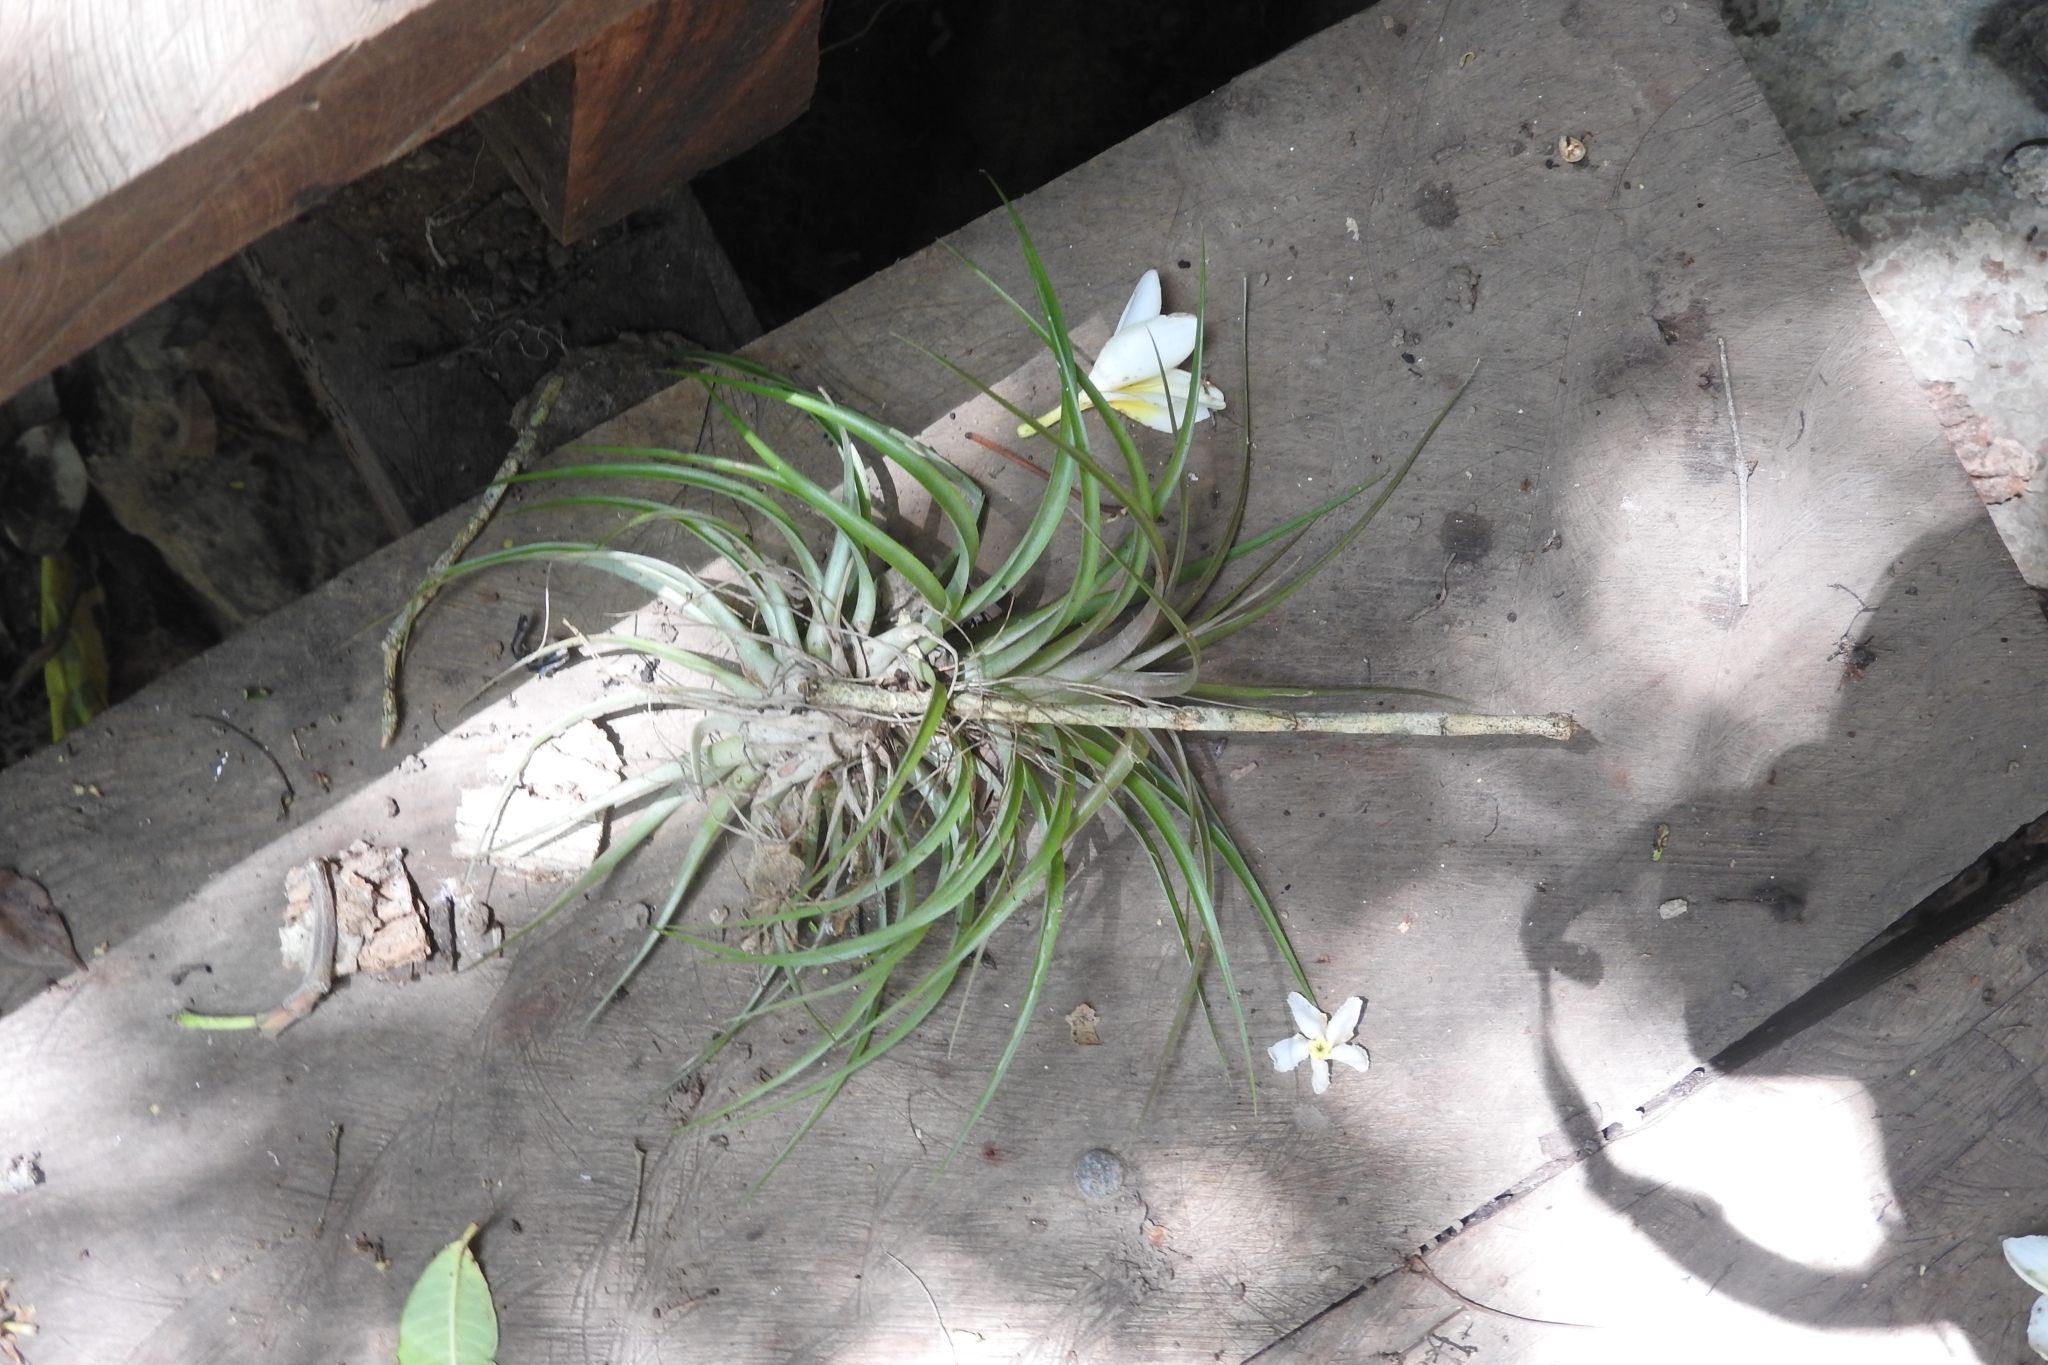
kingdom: Plantae
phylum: Tracheophyta
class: Liliopsida
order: Poales
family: Bromeliaceae
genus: Tillandsia
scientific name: Tillandsia brachycaulos
